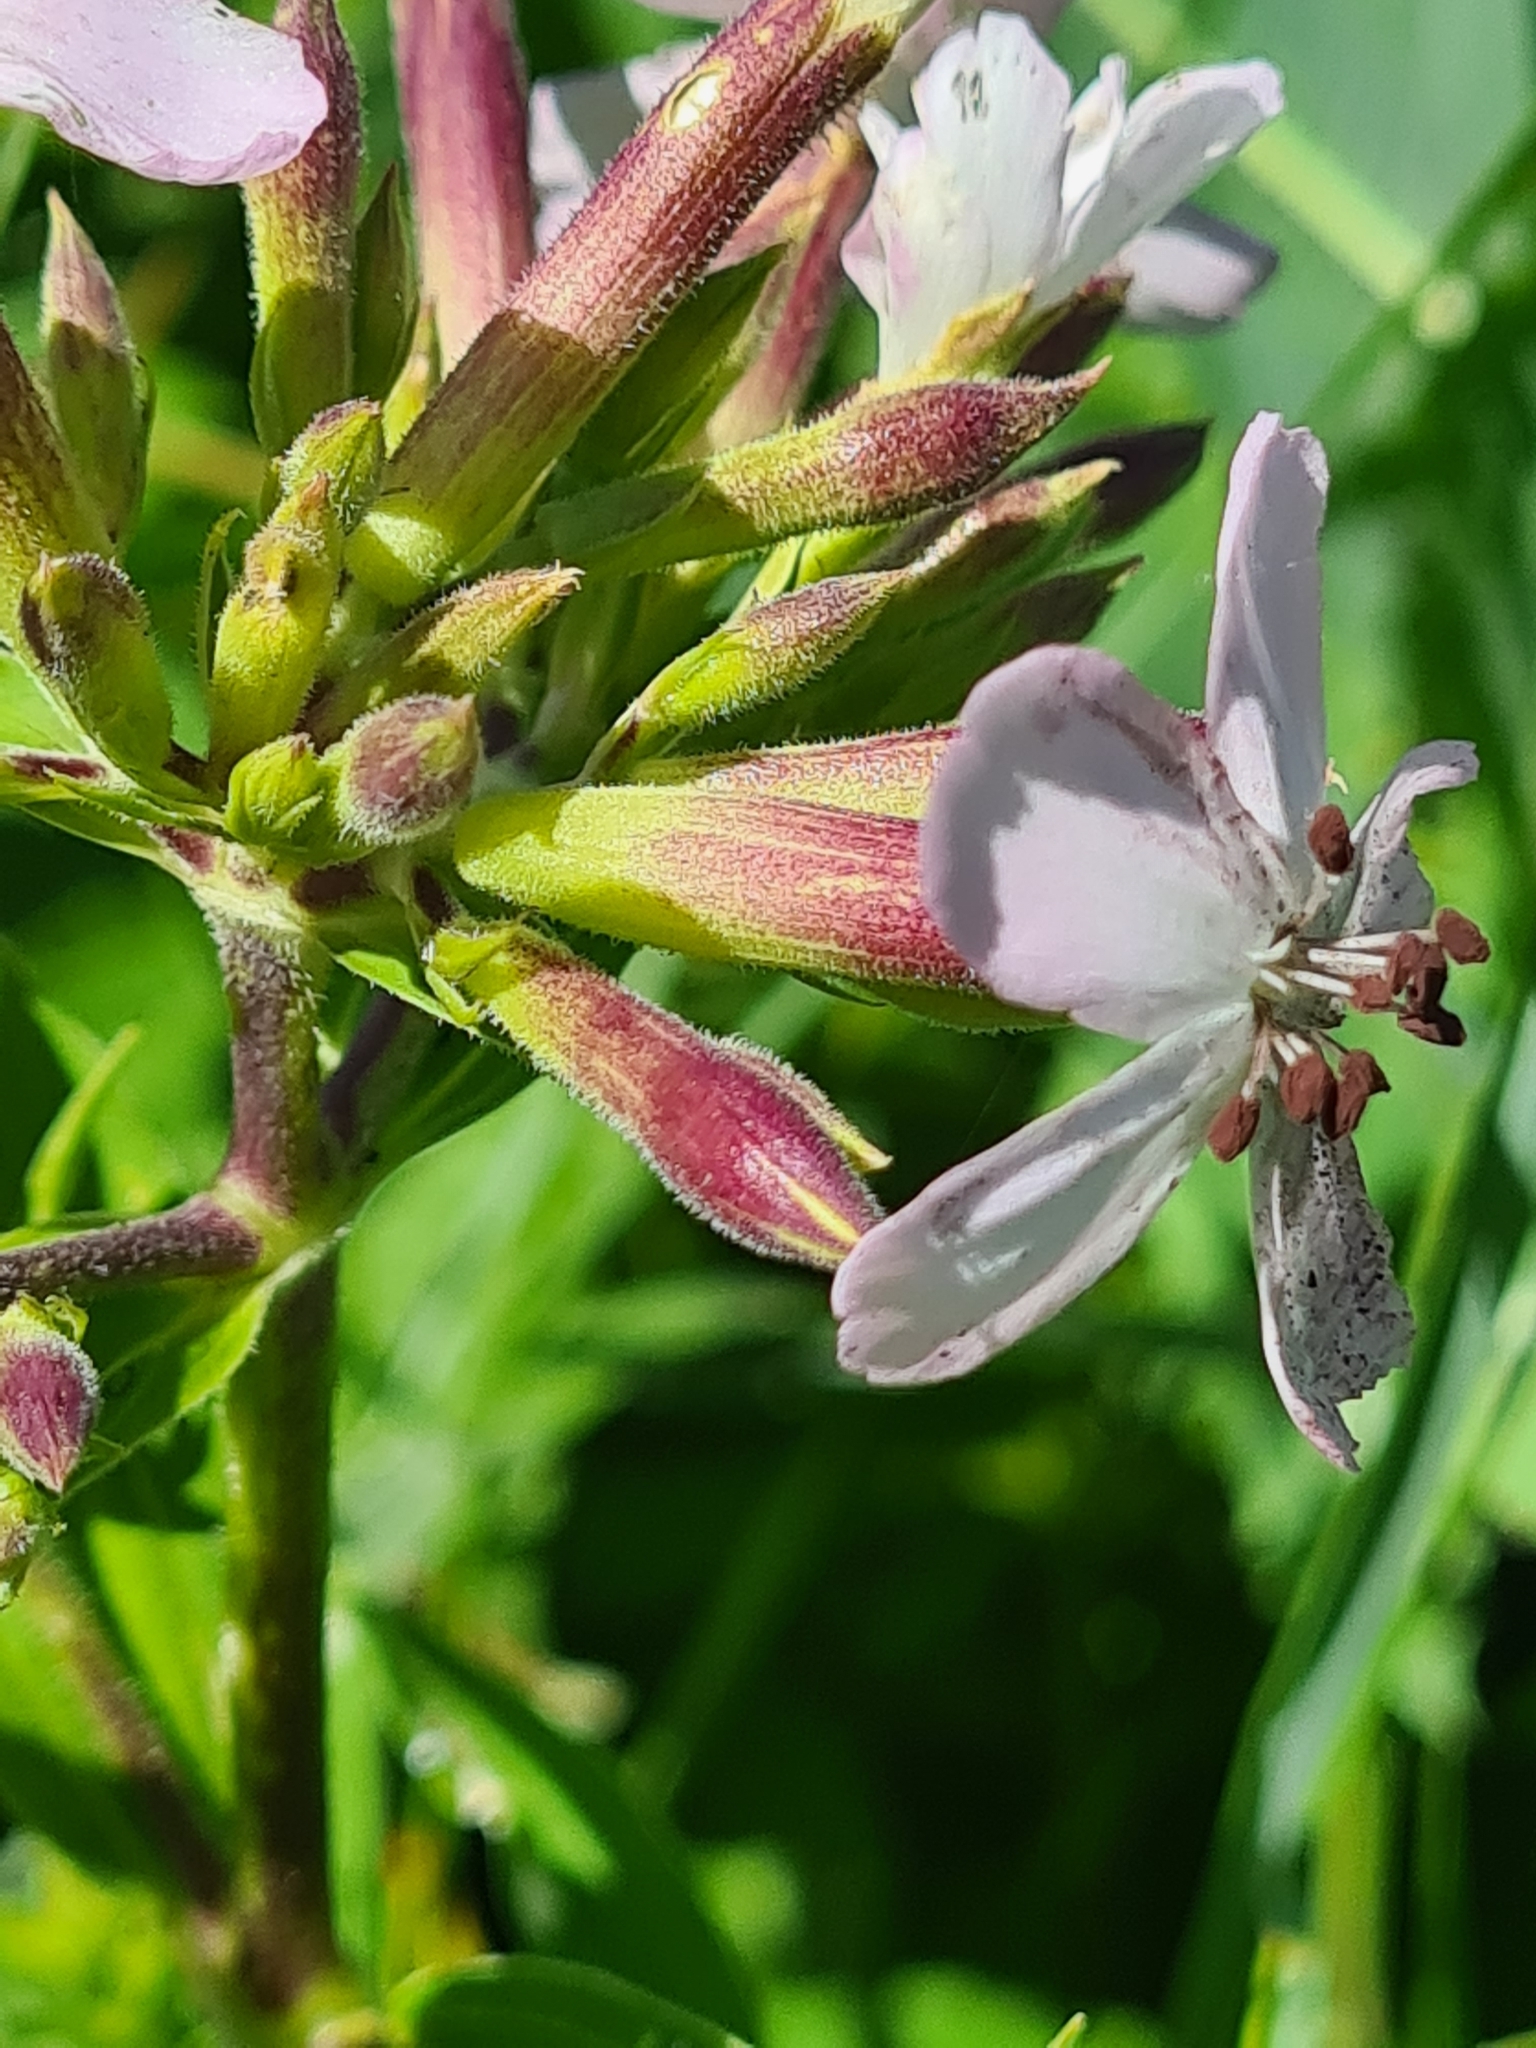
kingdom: Plantae
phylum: Tracheophyta
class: Magnoliopsida
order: Caryophyllales
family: Caryophyllaceae
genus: Saponaria
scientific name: Saponaria officinalis
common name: Soapwort
